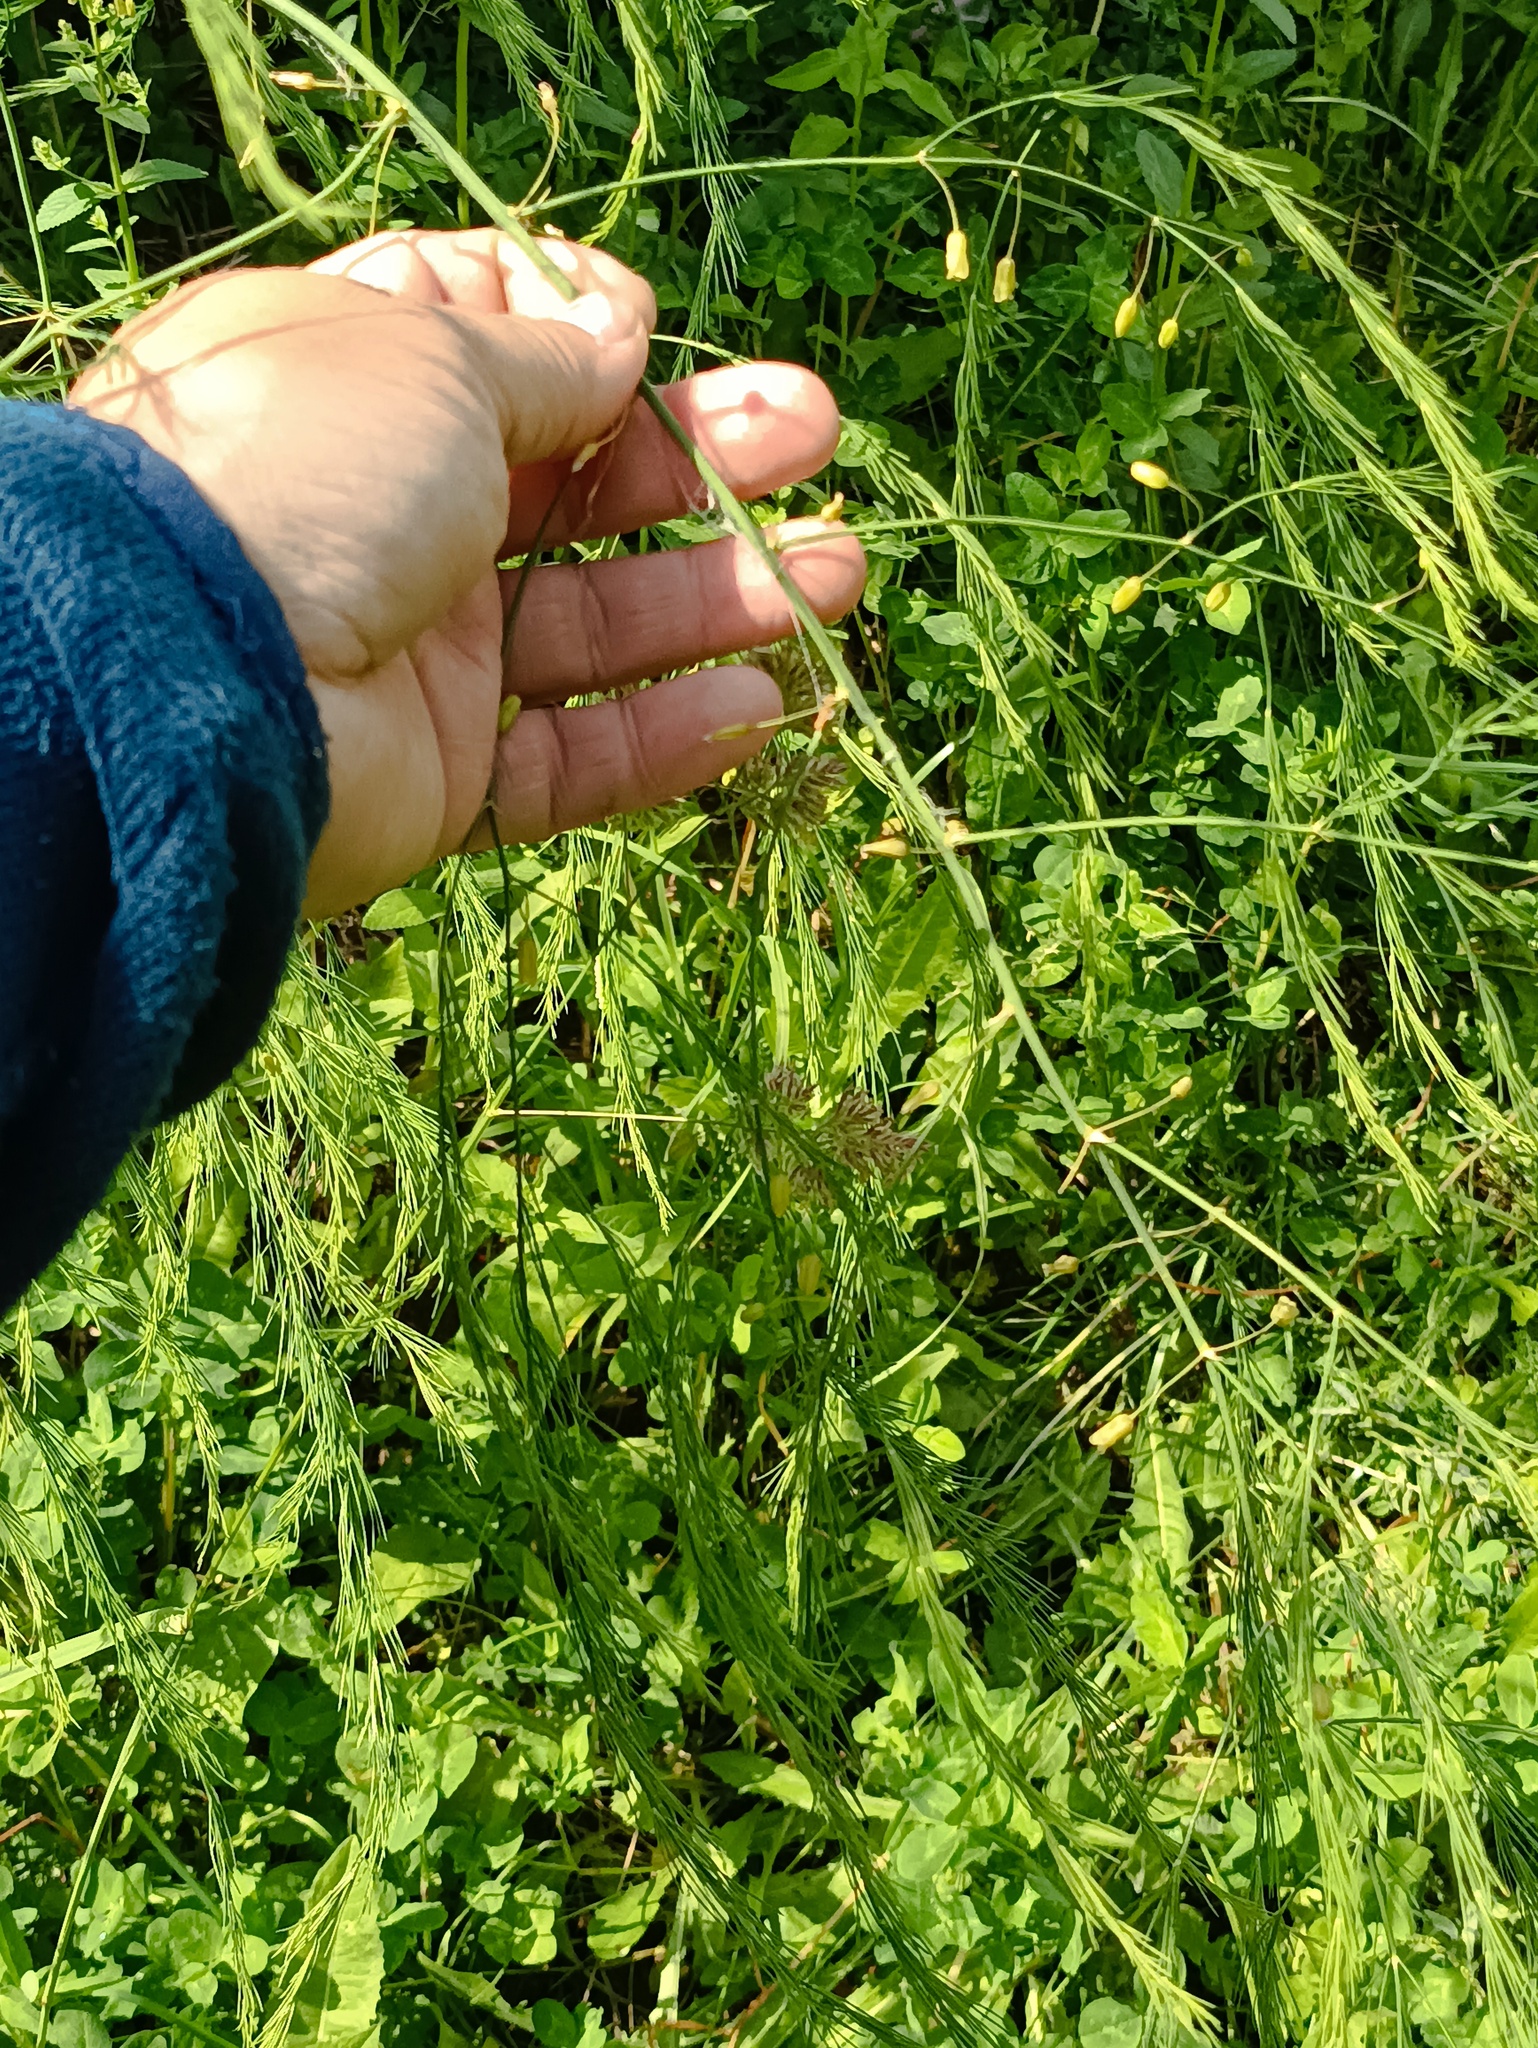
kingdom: Plantae
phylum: Tracheophyta
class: Liliopsida
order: Asparagales
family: Asparagaceae
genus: Asparagus
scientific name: Asparagus officinalis
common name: Garden asparagus
